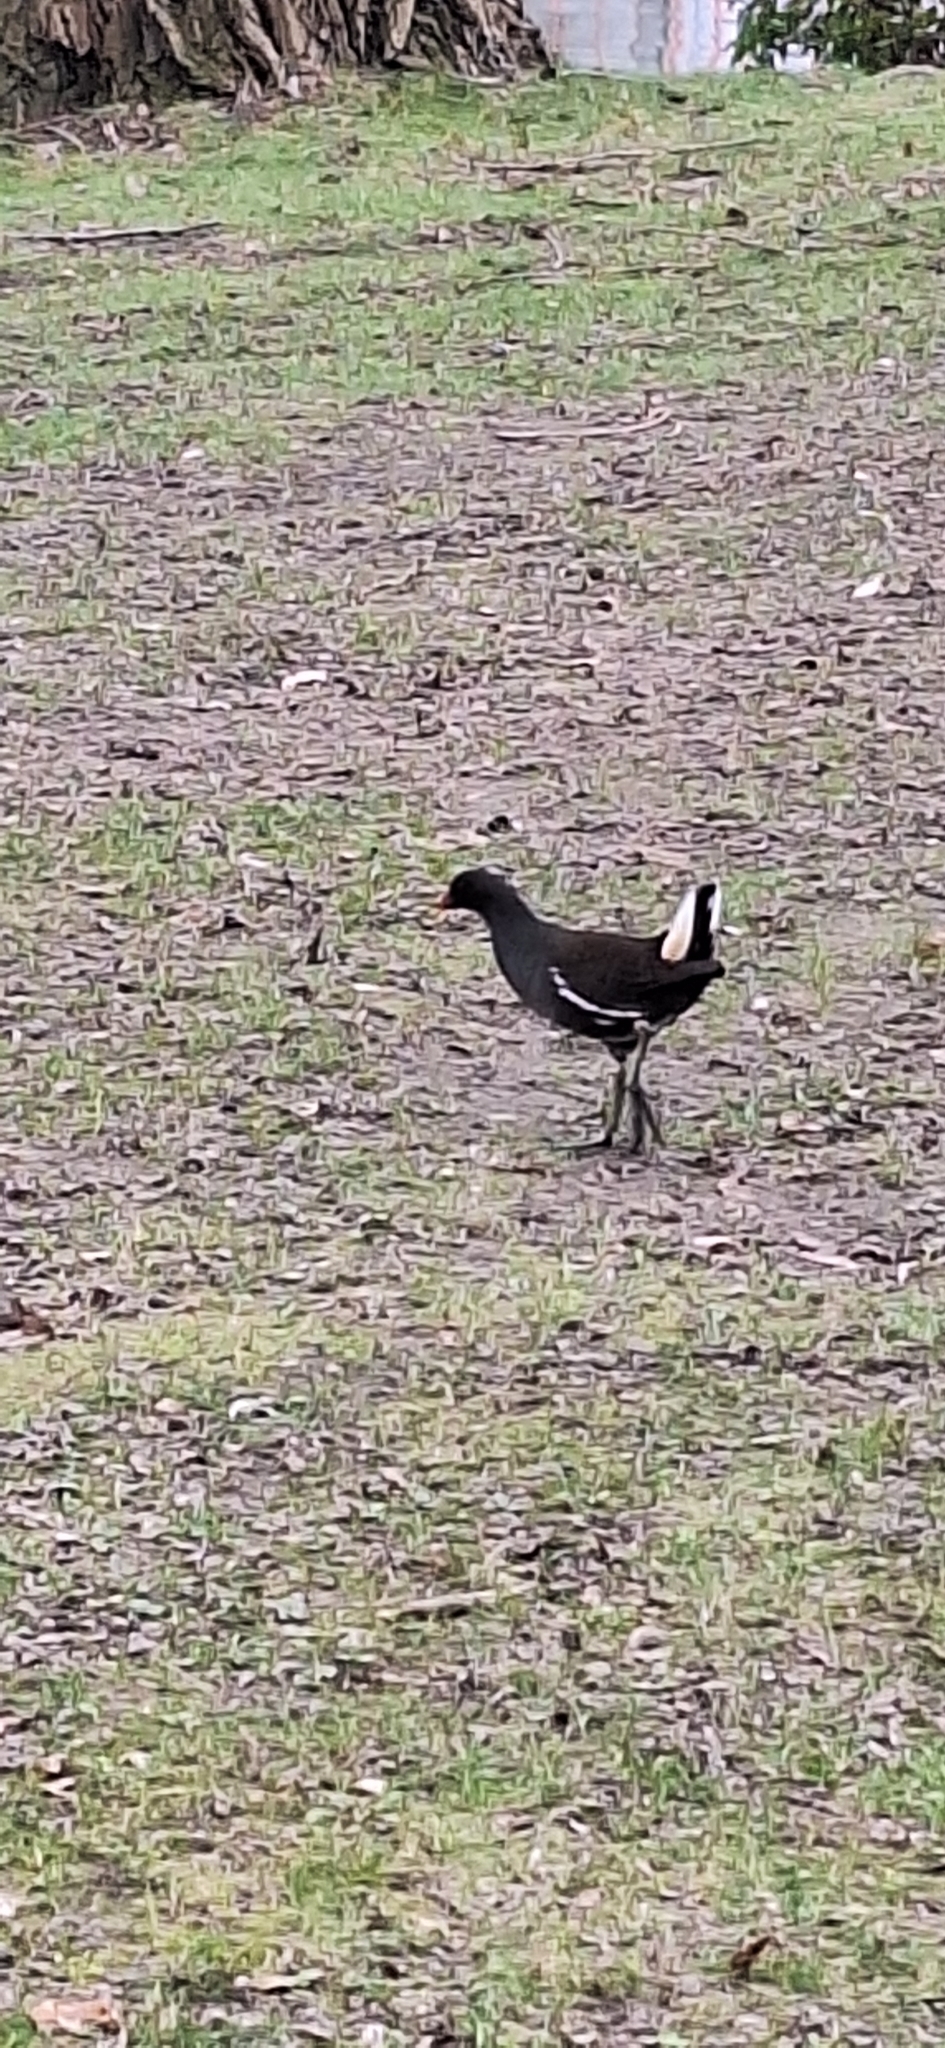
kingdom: Animalia
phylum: Chordata
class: Aves
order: Gruiformes
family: Rallidae
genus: Gallinula
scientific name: Gallinula chloropus
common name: Common moorhen
